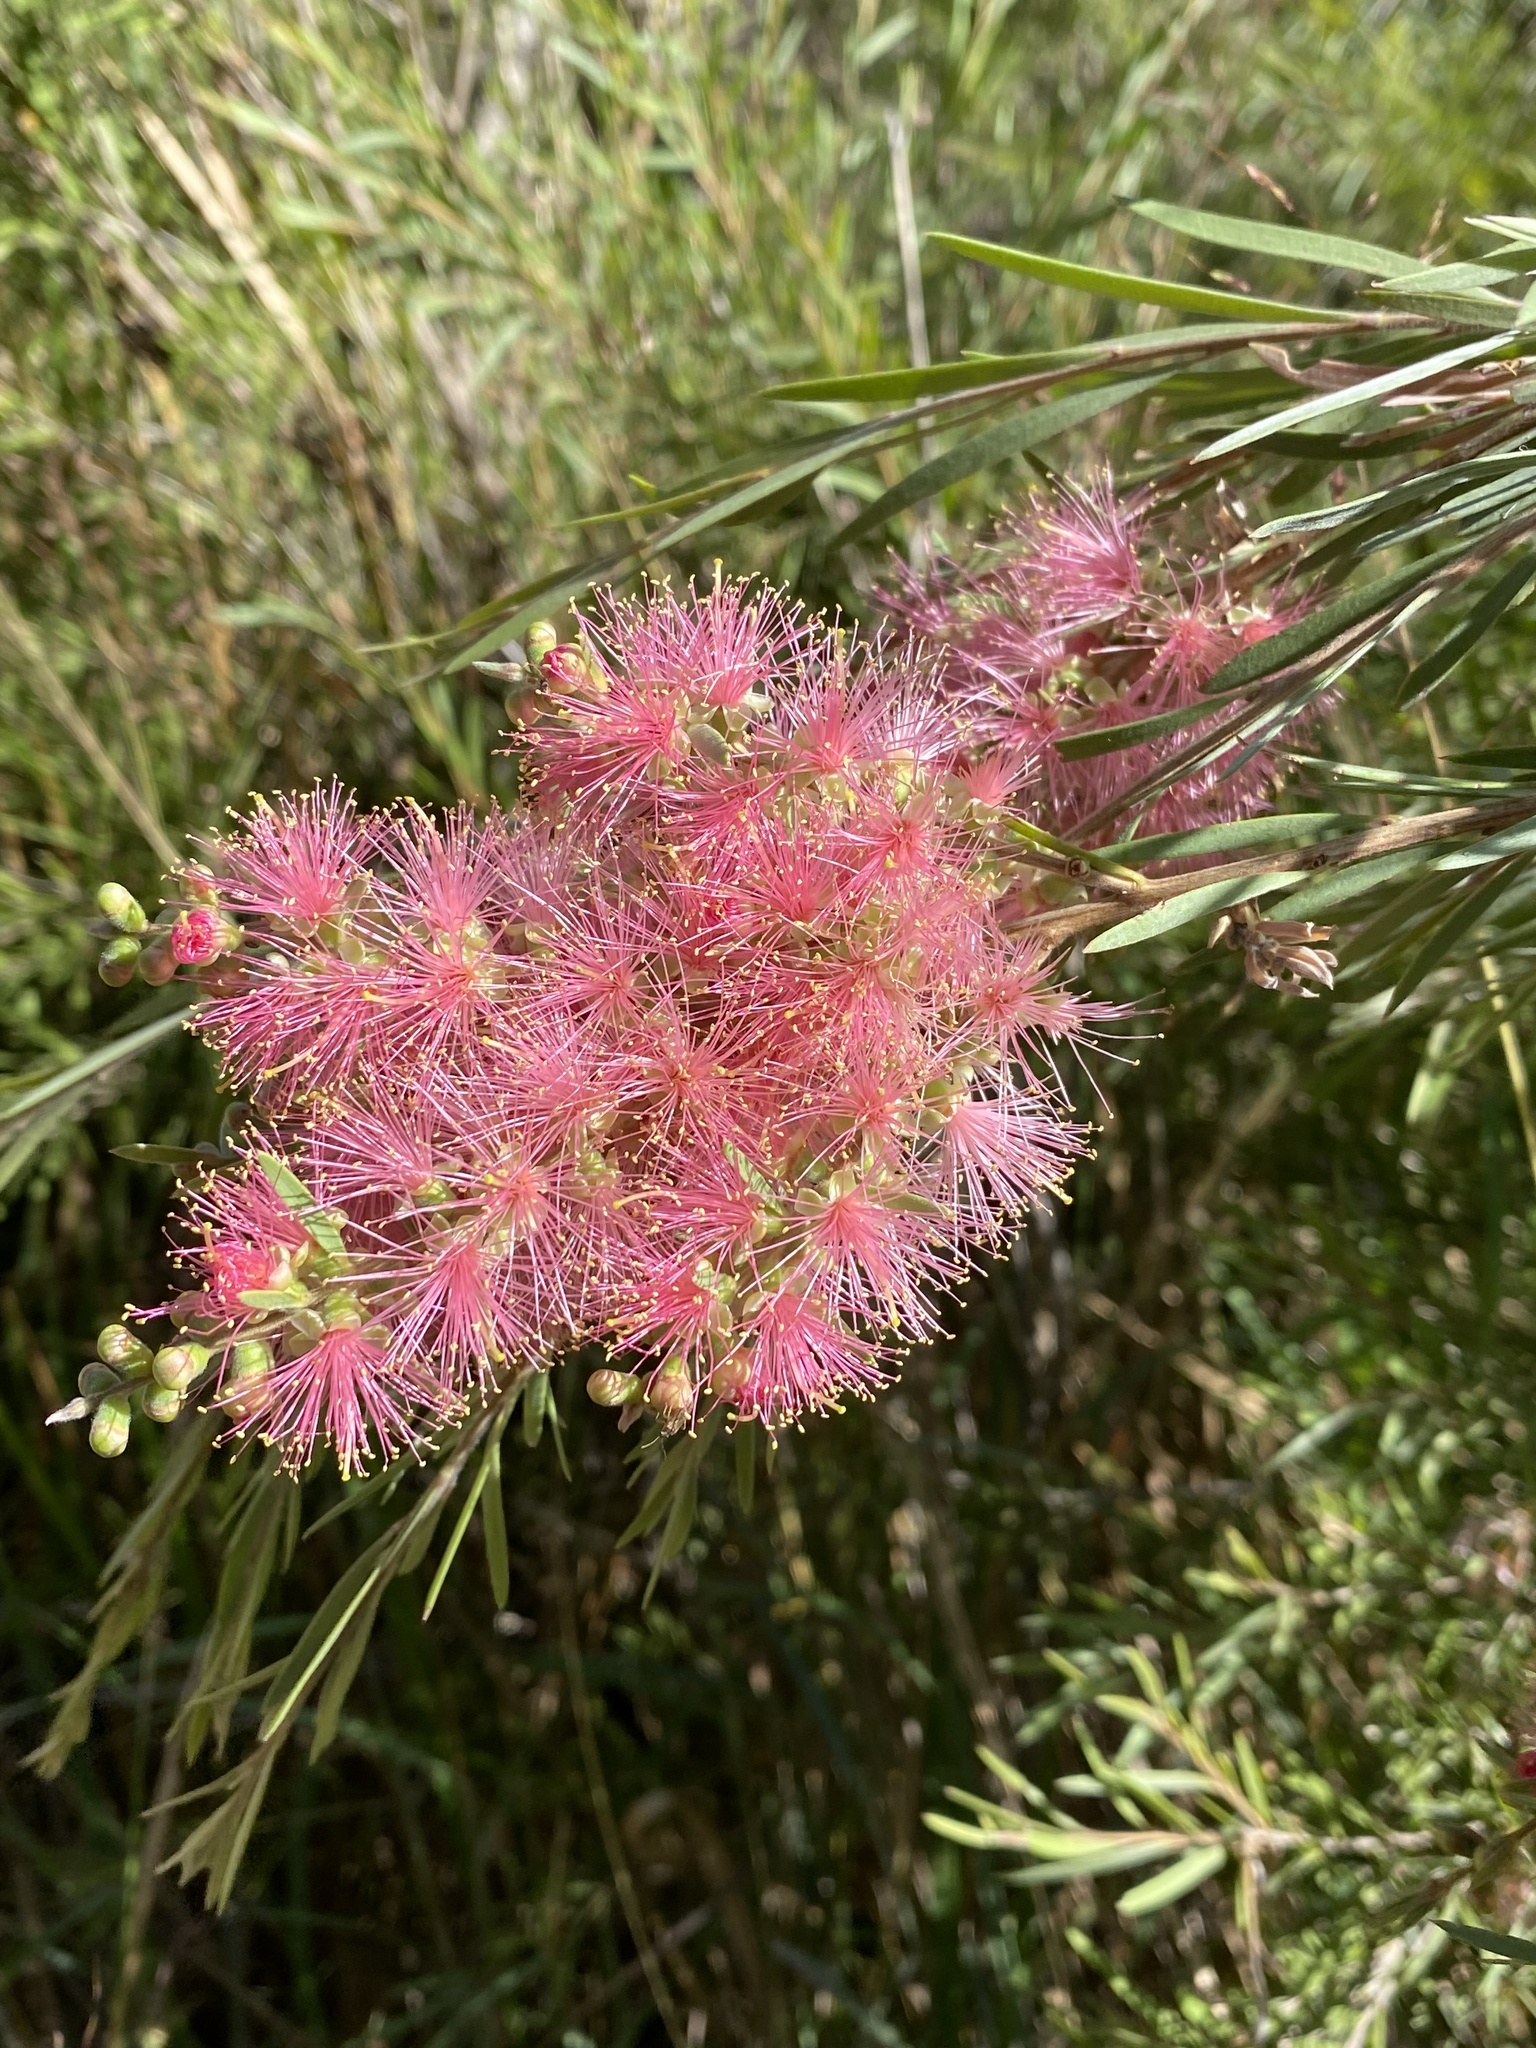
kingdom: Plantae
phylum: Tracheophyta
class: Magnoliopsida
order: Myrtales
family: Myrtaceae
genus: Callistemon
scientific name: Callistemon quercinus
